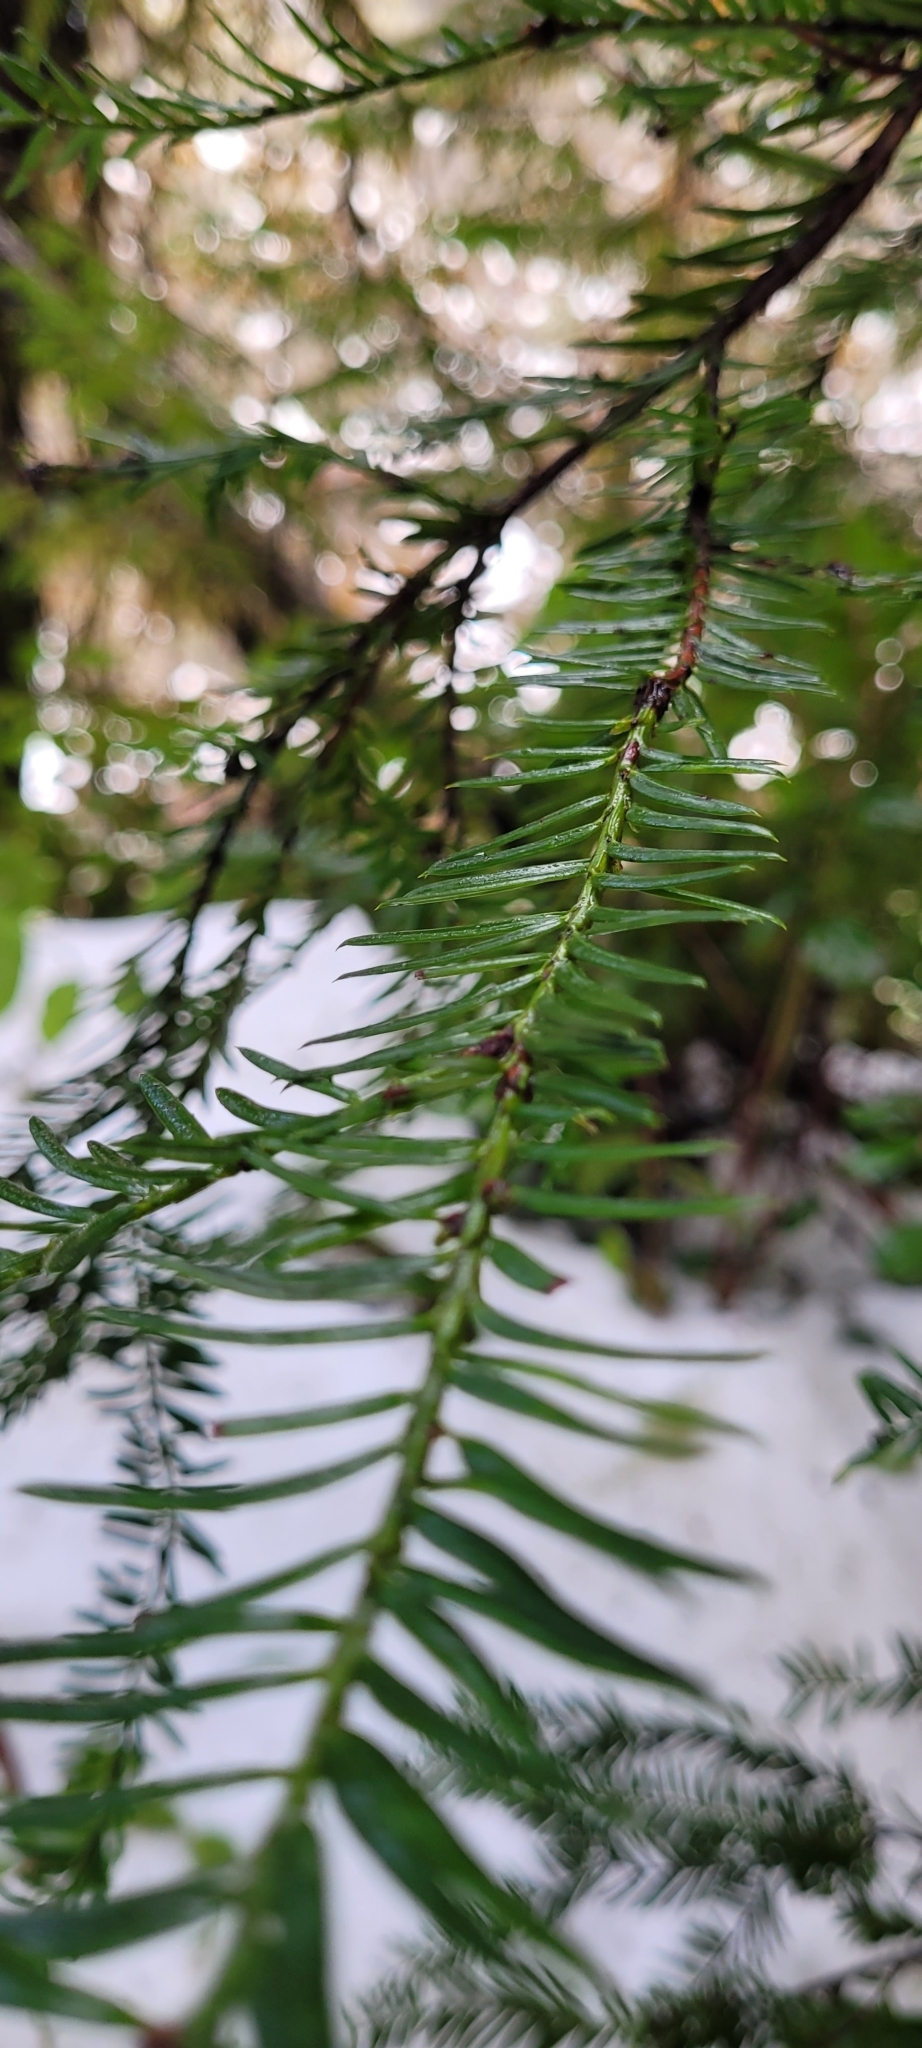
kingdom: Plantae
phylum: Tracheophyta
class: Pinopsida
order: Pinales
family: Taxaceae
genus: Taxus
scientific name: Taxus brevifolia
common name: Pacific yew
